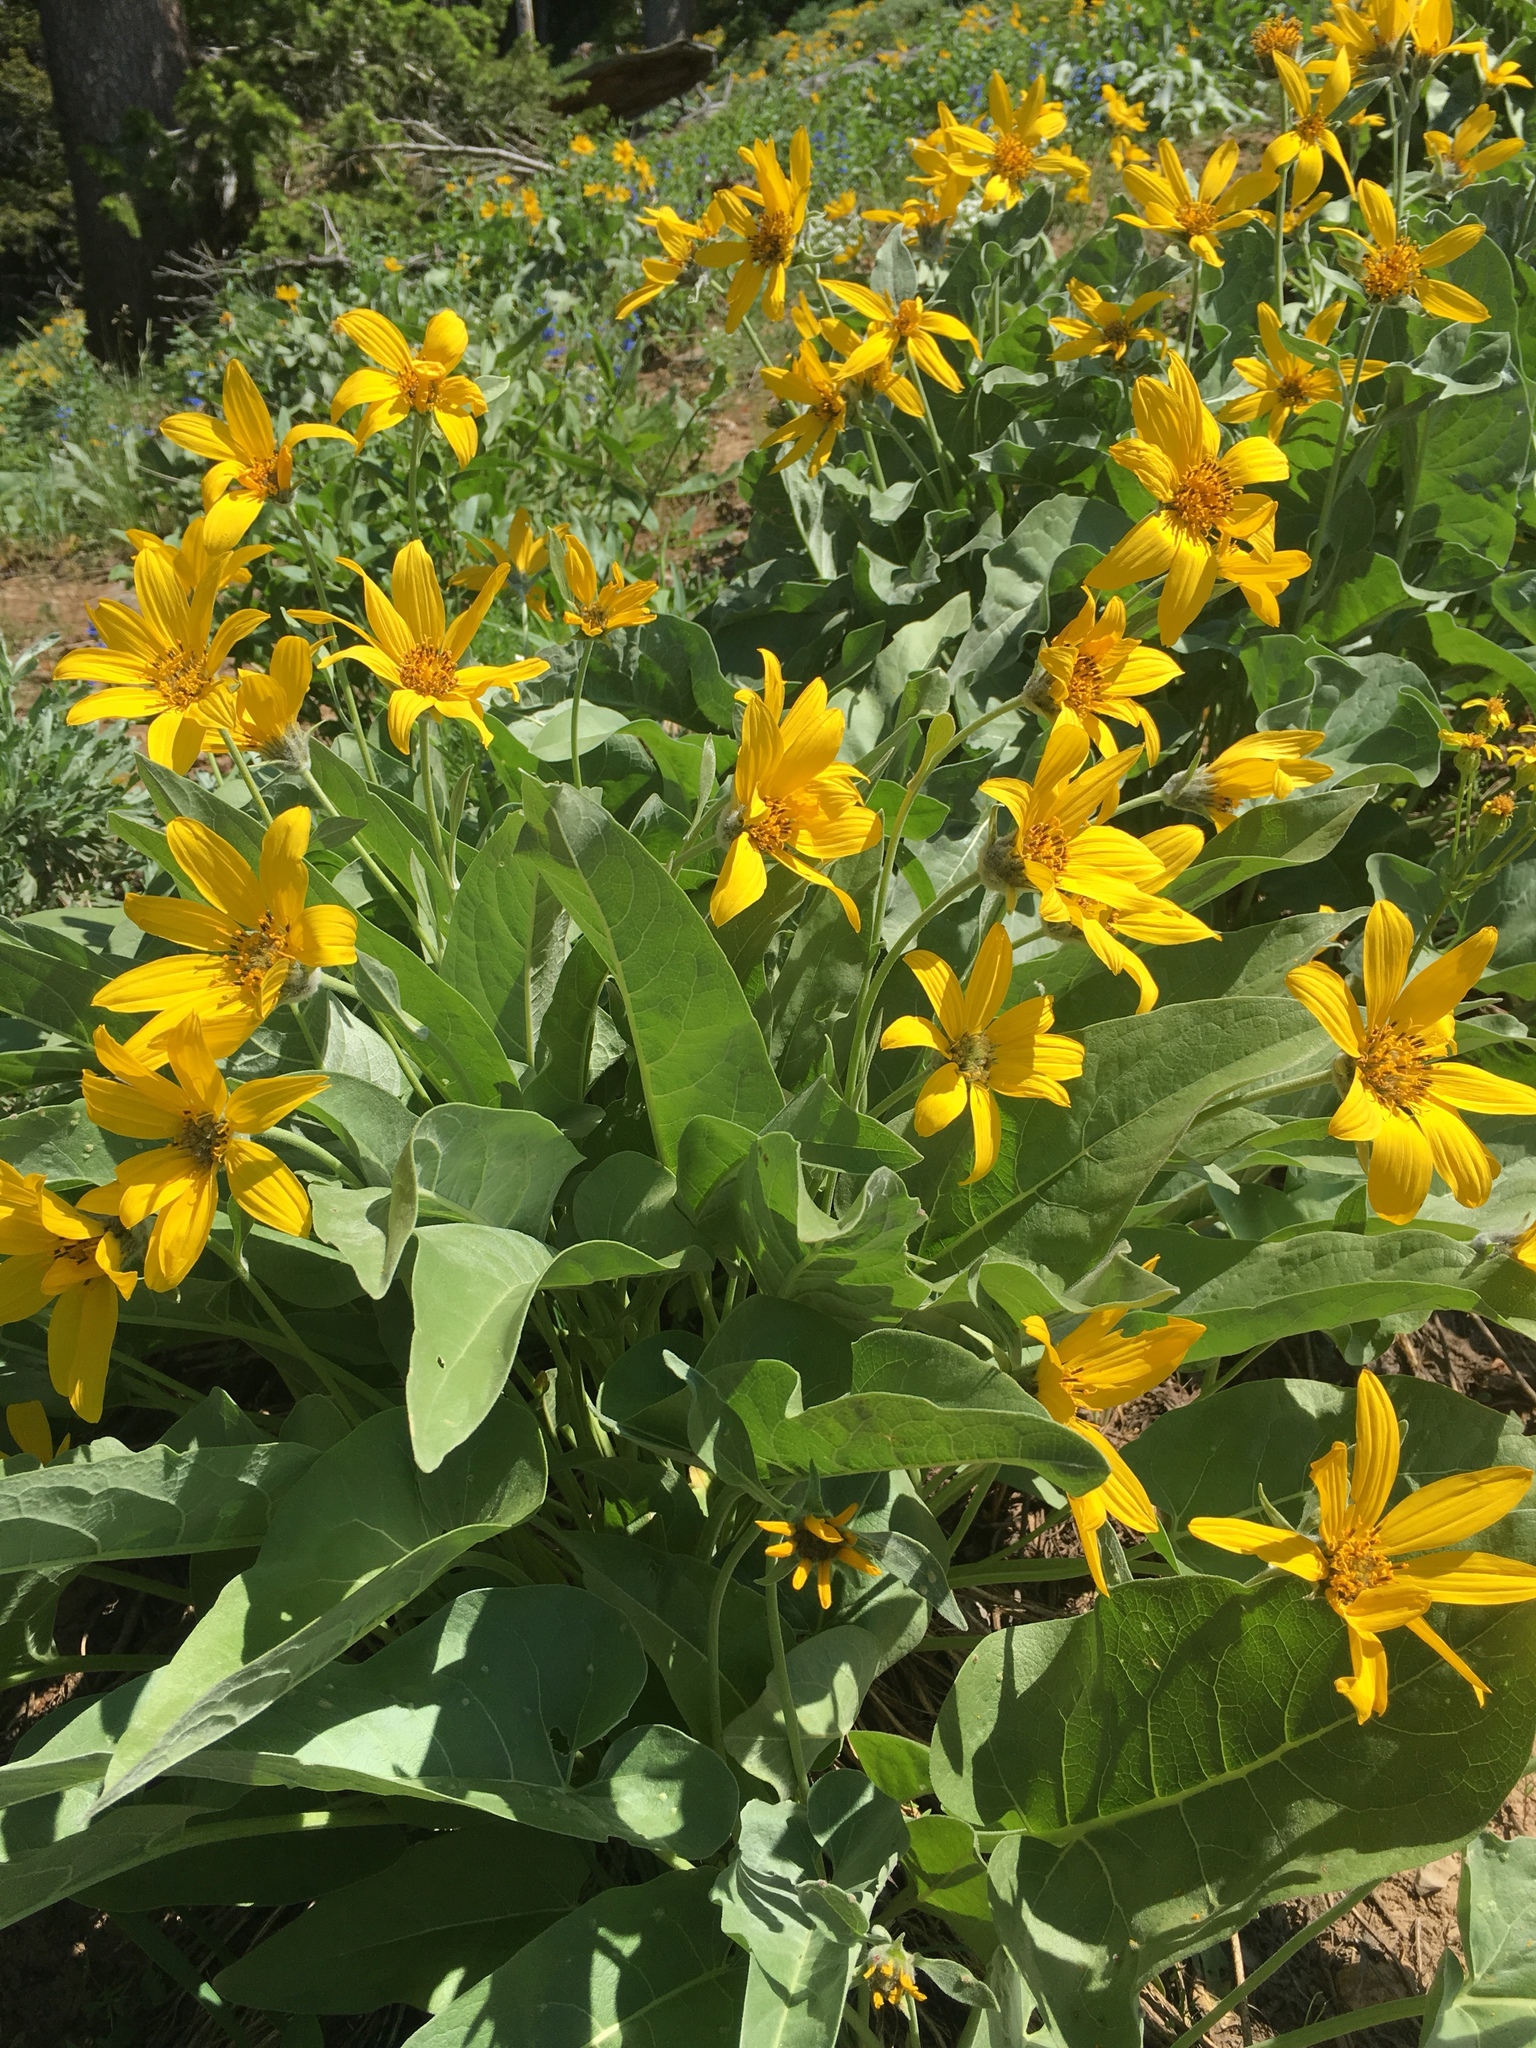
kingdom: Plantae
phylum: Tracheophyta
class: Magnoliopsida
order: Asterales
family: Asteraceae
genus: Wyethia
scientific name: Wyethia sagittata
